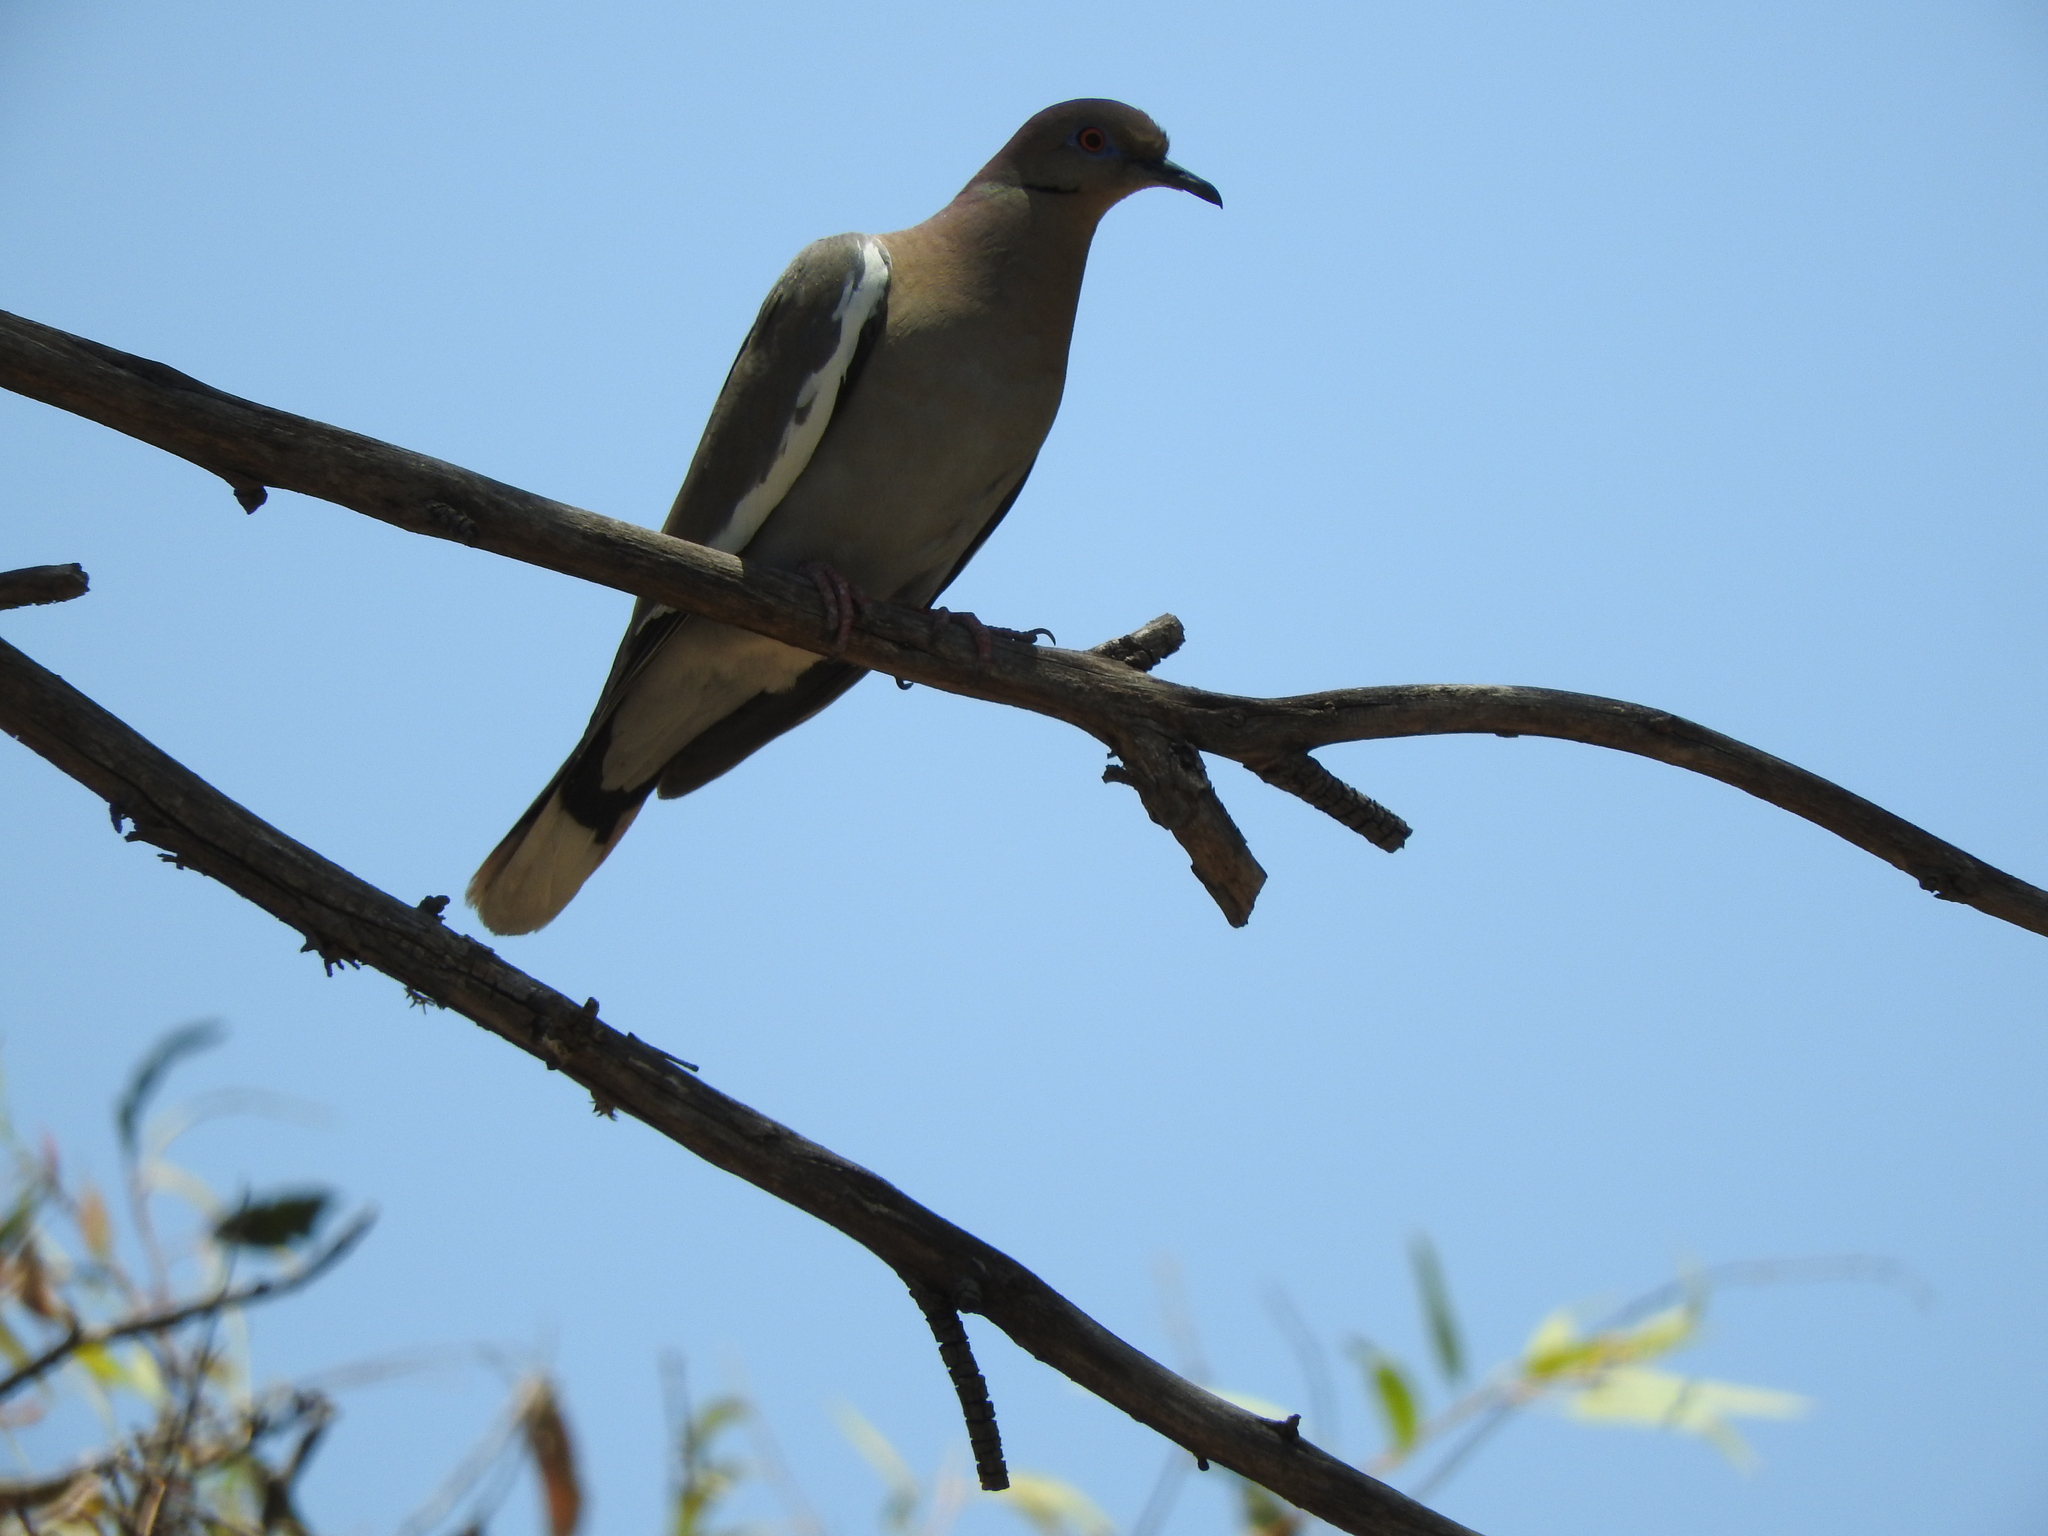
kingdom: Animalia
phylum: Chordata
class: Aves
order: Columbiformes
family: Columbidae
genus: Zenaida
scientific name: Zenaida asiatica
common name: White-winged dove
